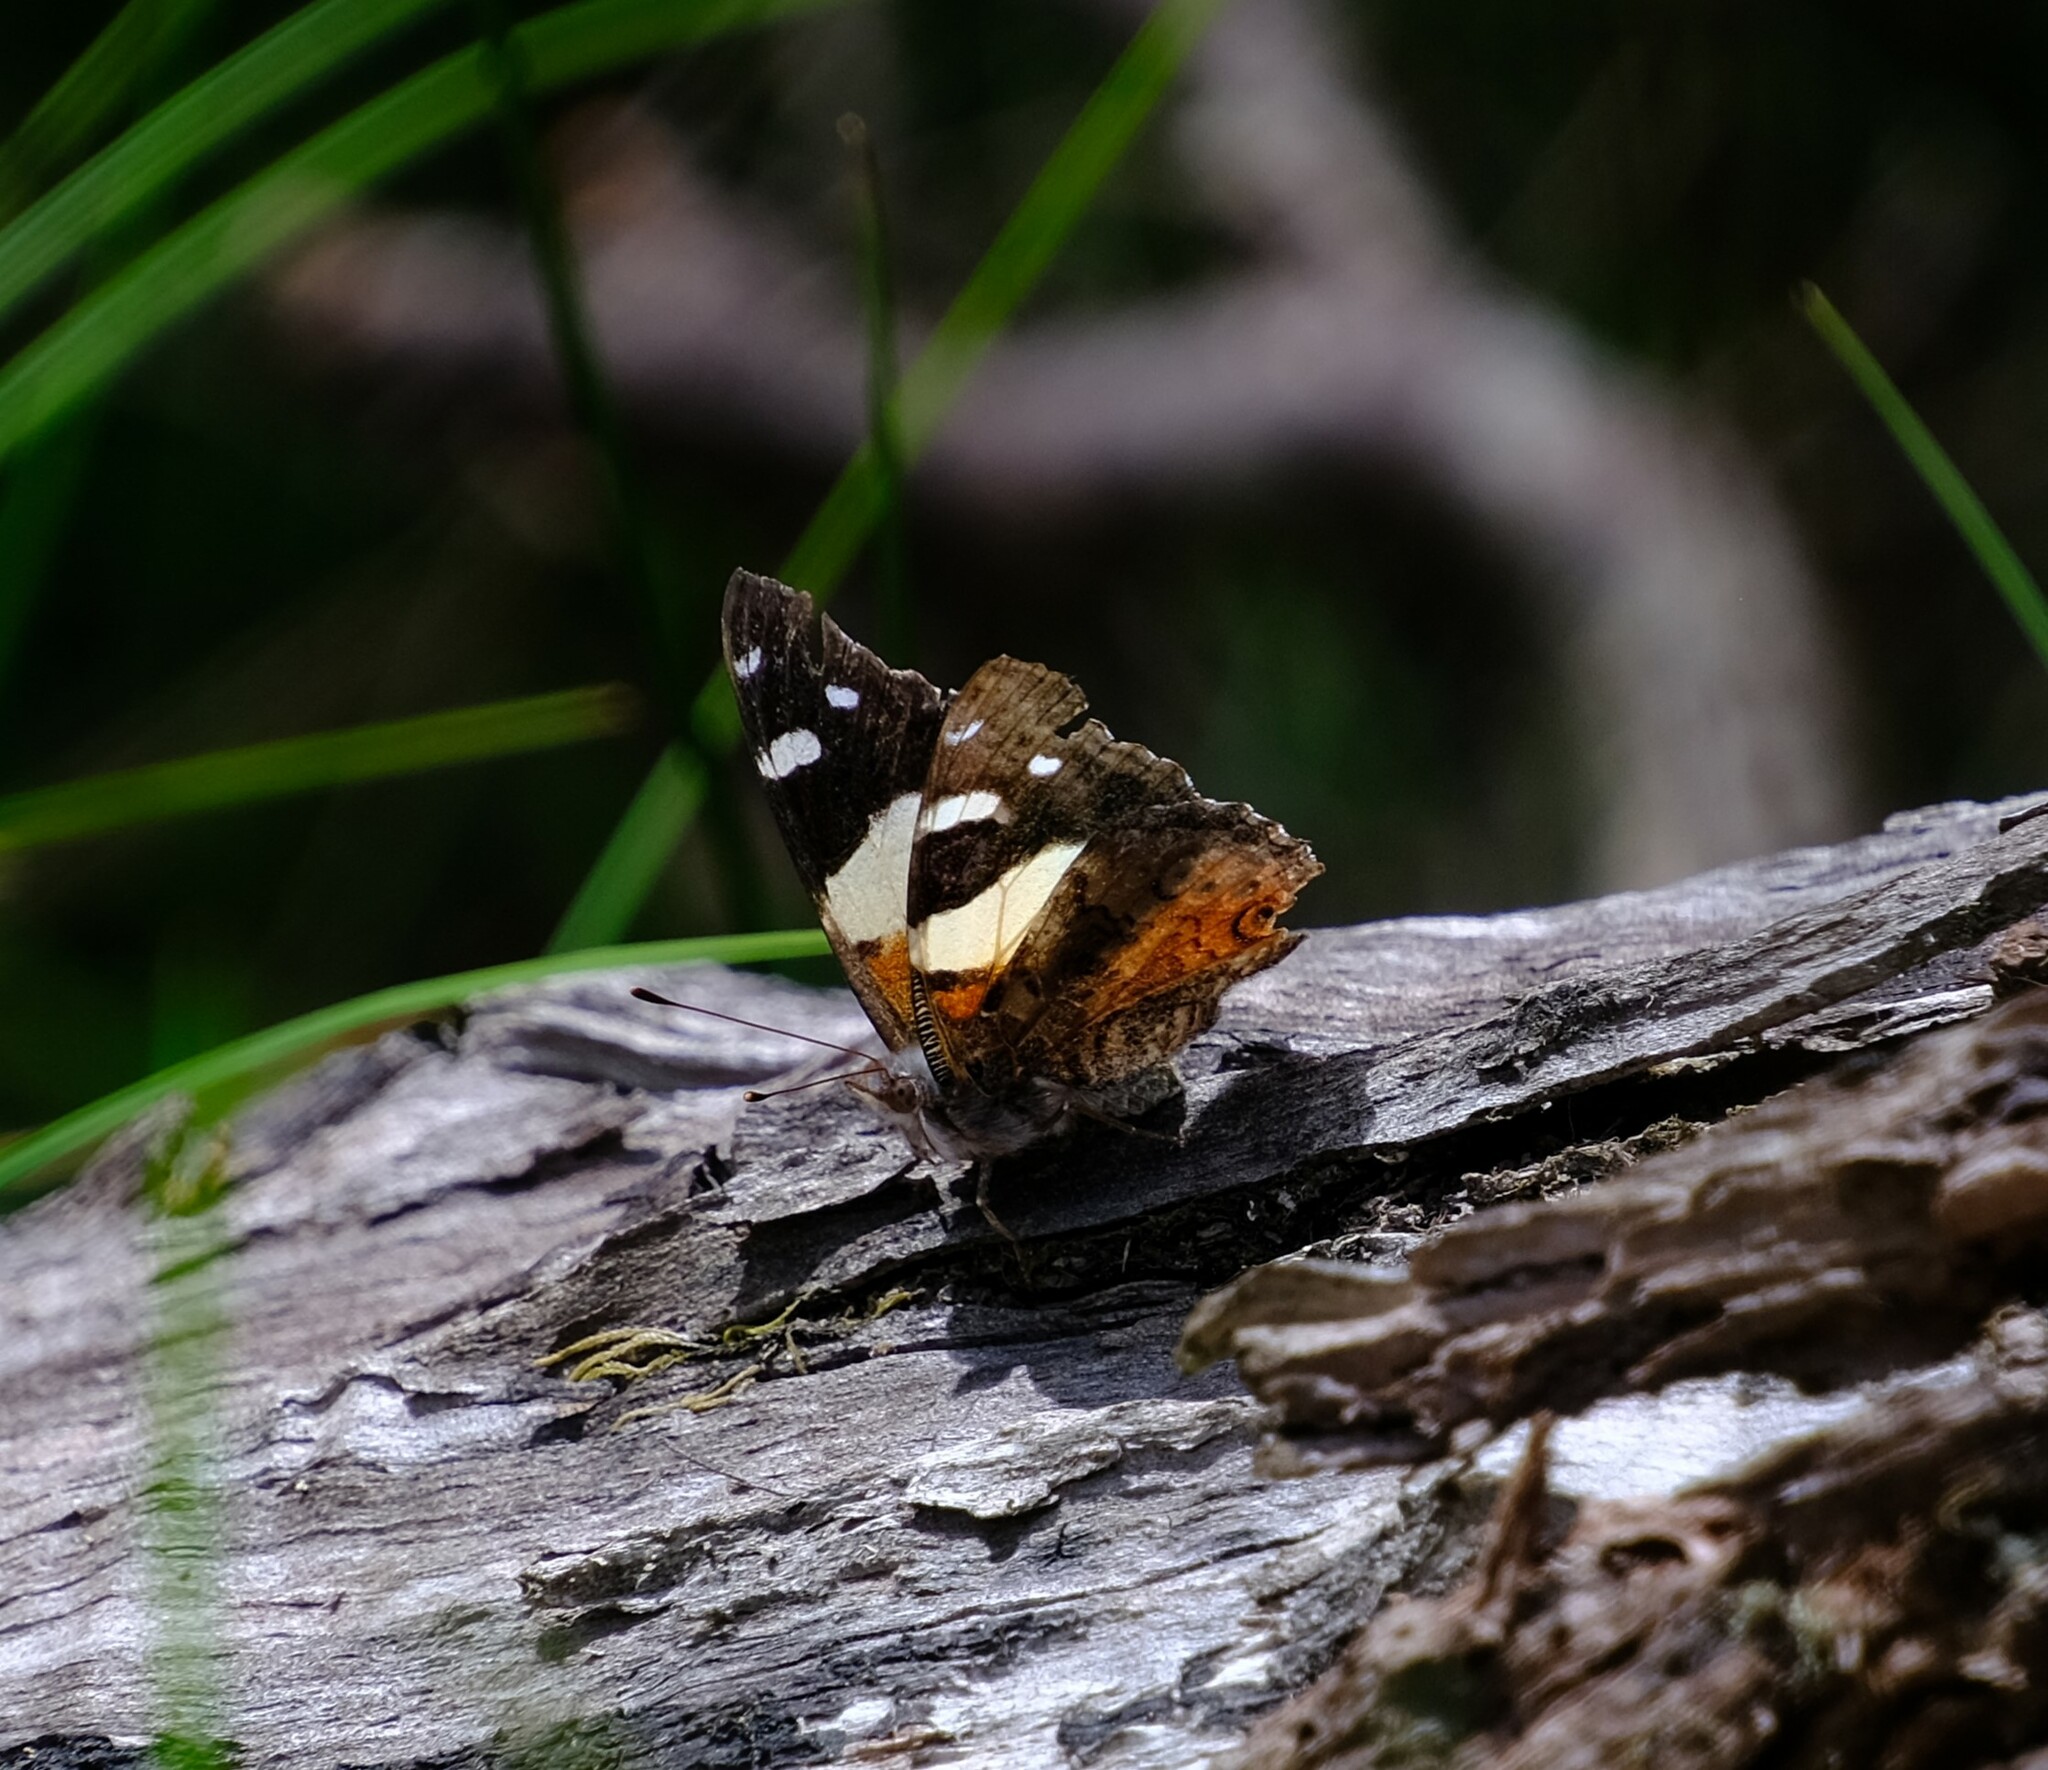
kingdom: Animalia
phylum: Arthropoda
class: Insecta
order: Lepidoptera
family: Nymphalidae
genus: Vanessa
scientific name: Vanessa itea
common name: Yellow admiral
